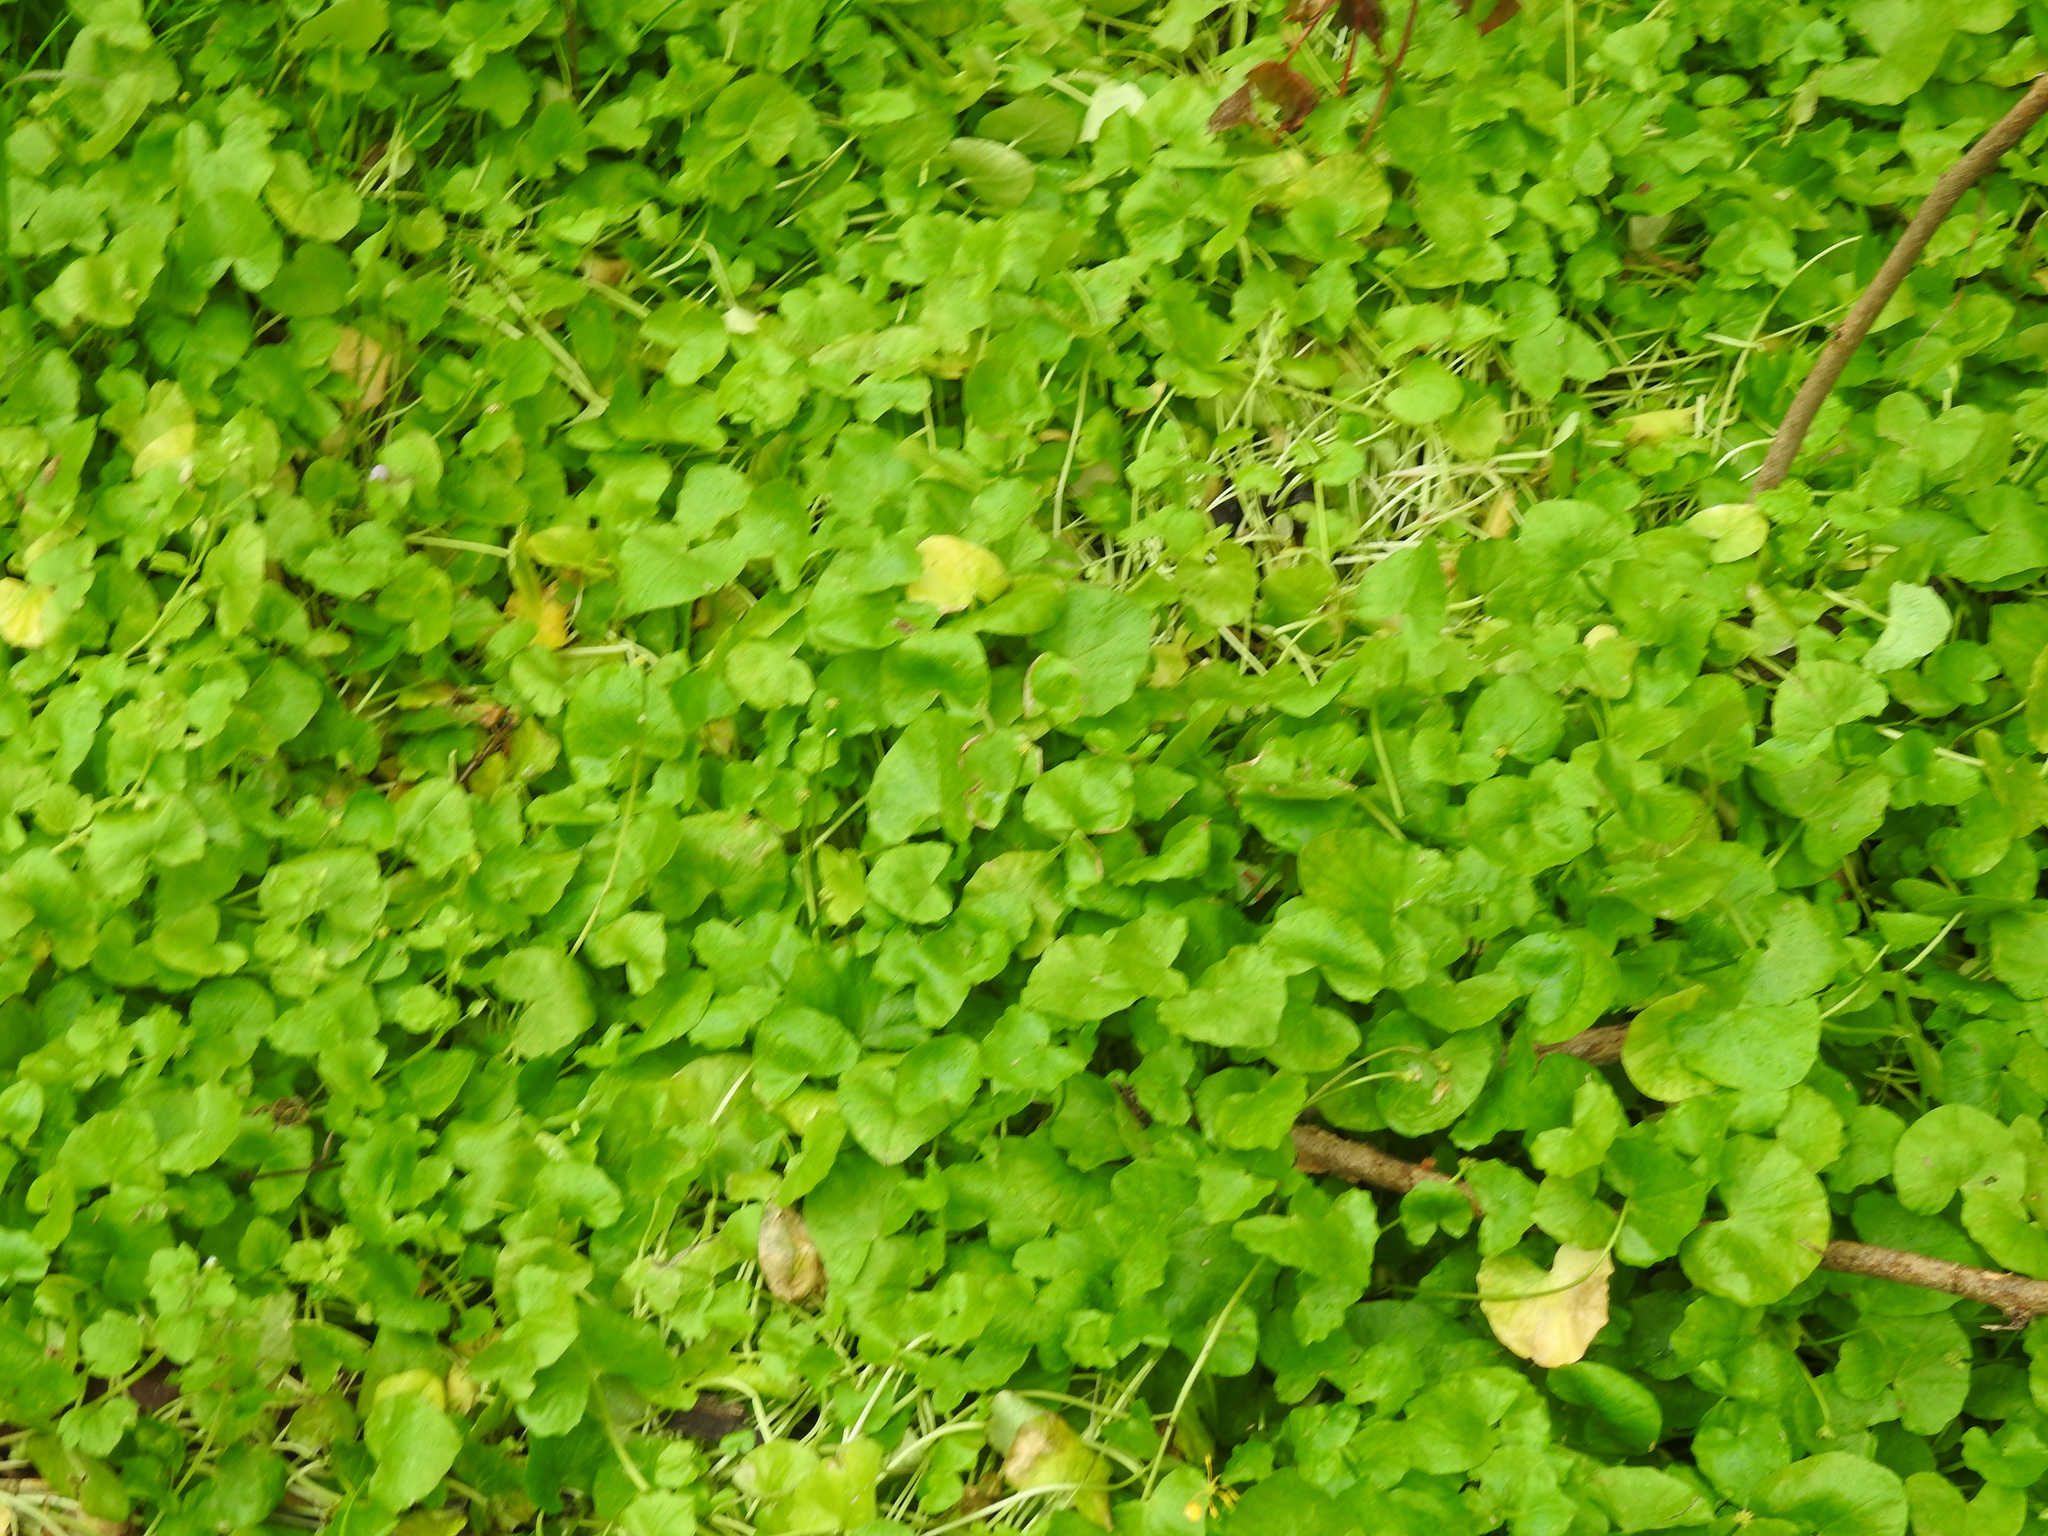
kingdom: Plantae
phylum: Tracheophyta
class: Magnoliopsida
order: Ranunculales
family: Ranunculaceae
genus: Ficaria
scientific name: Ficaria verna
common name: Lesser celandine
